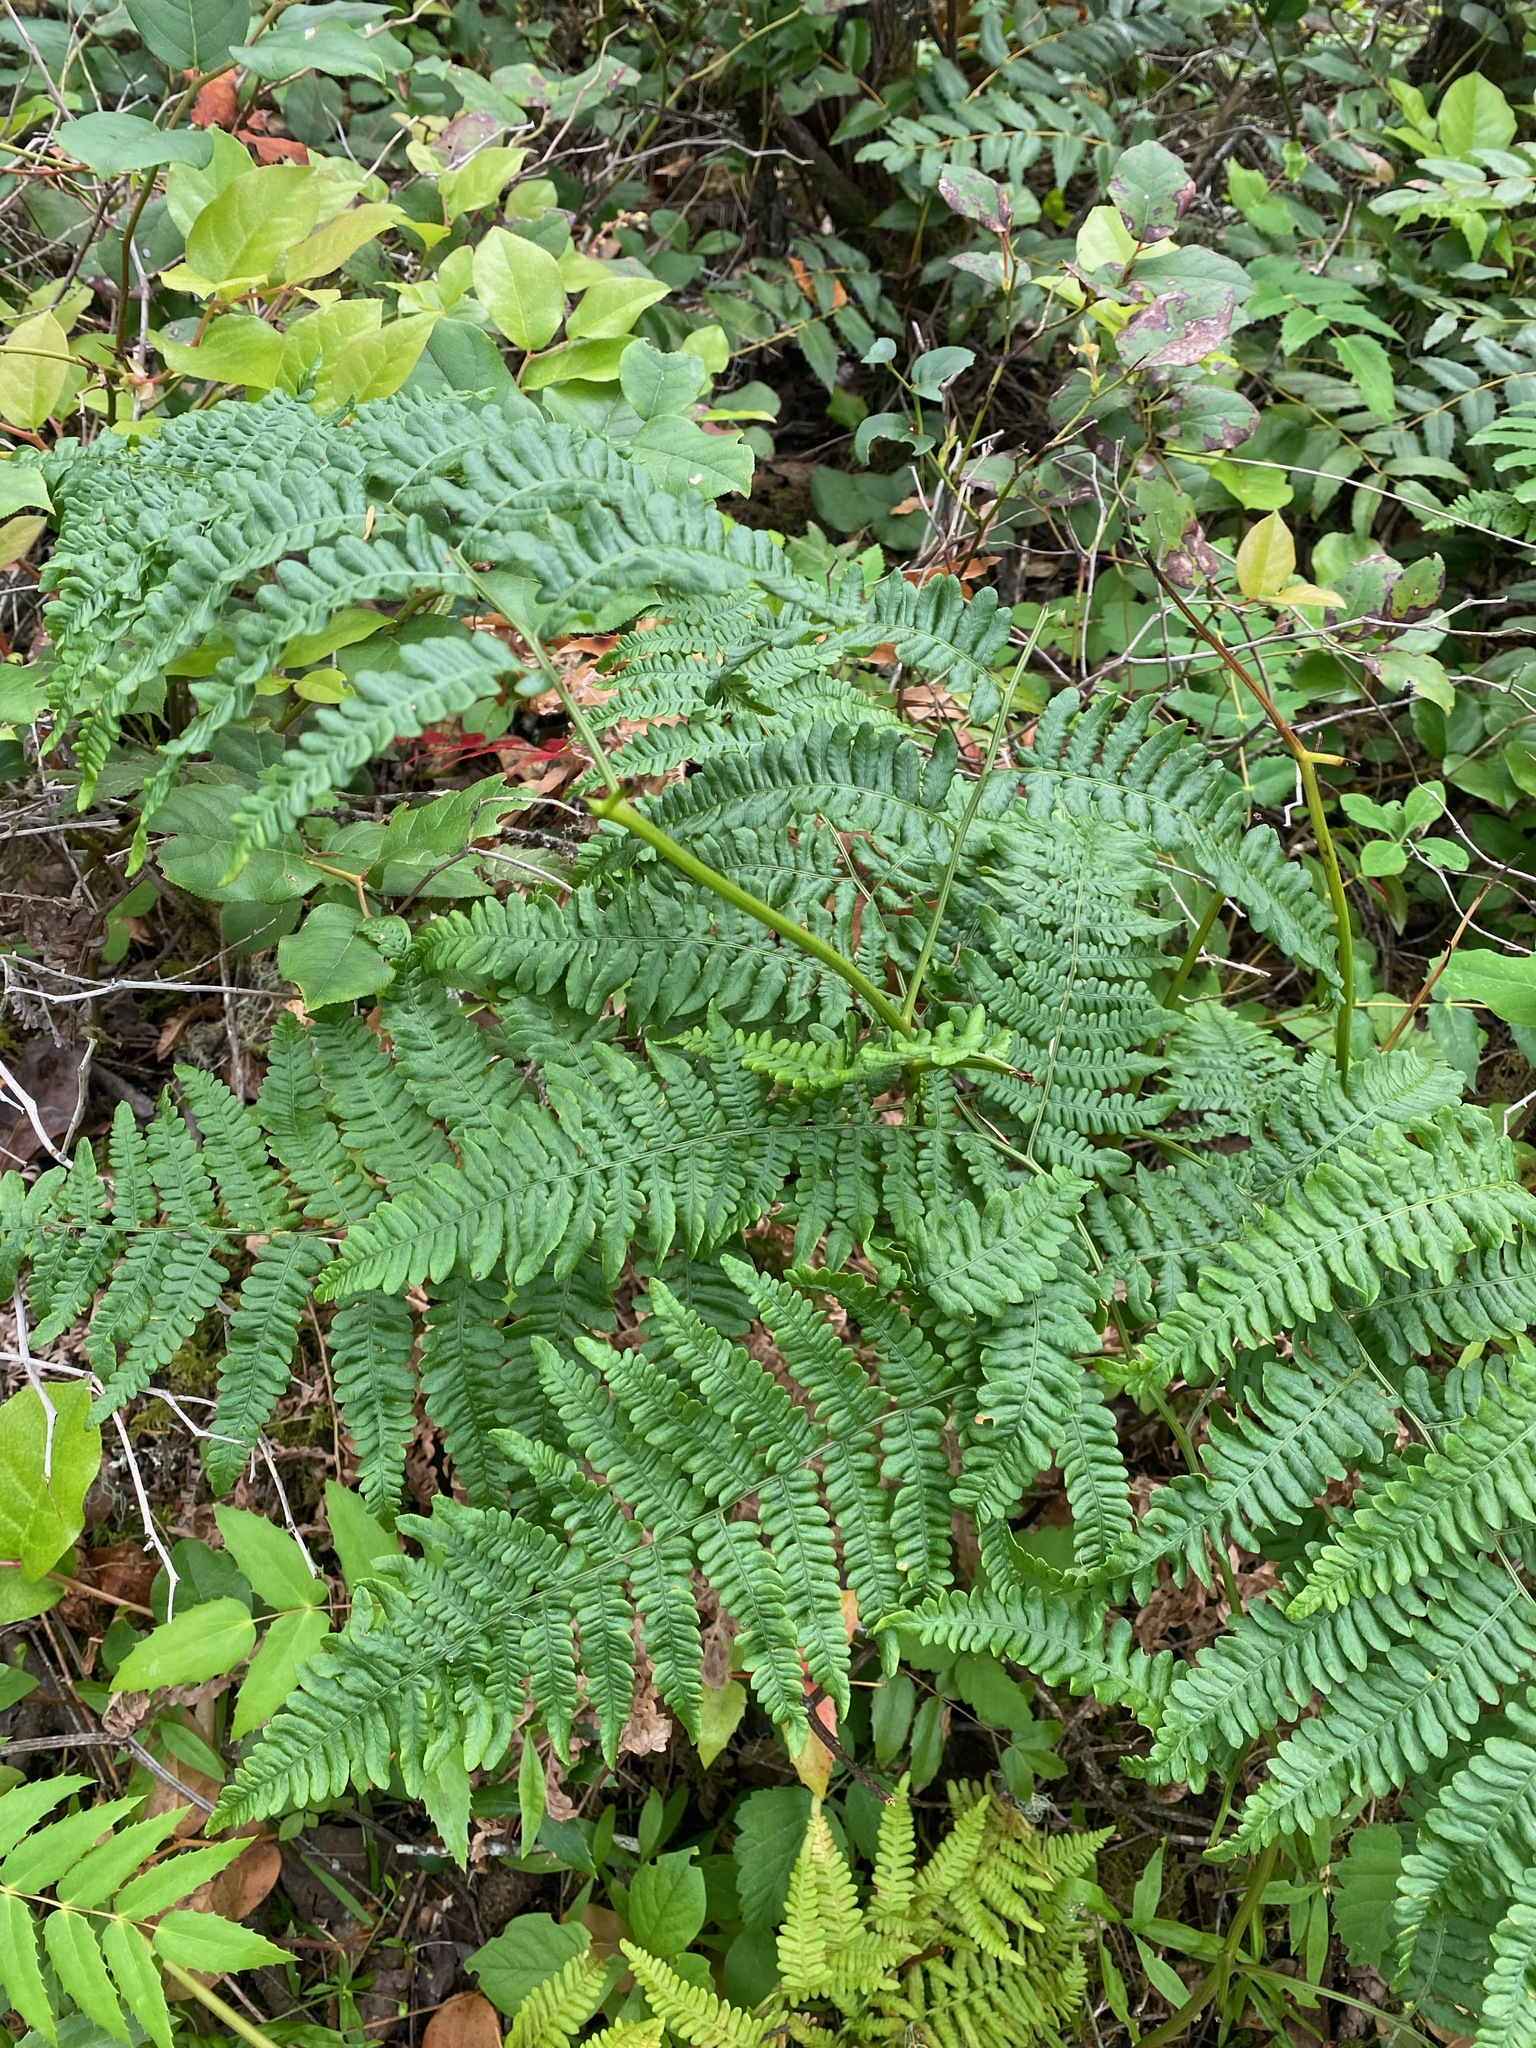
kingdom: Plantae
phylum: Tracheophyta
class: Polypodiopsida
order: Polypodiales
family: Dennstaedtiaceae
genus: Pteridium
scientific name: Pteridium aquilinum
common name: Bracken
